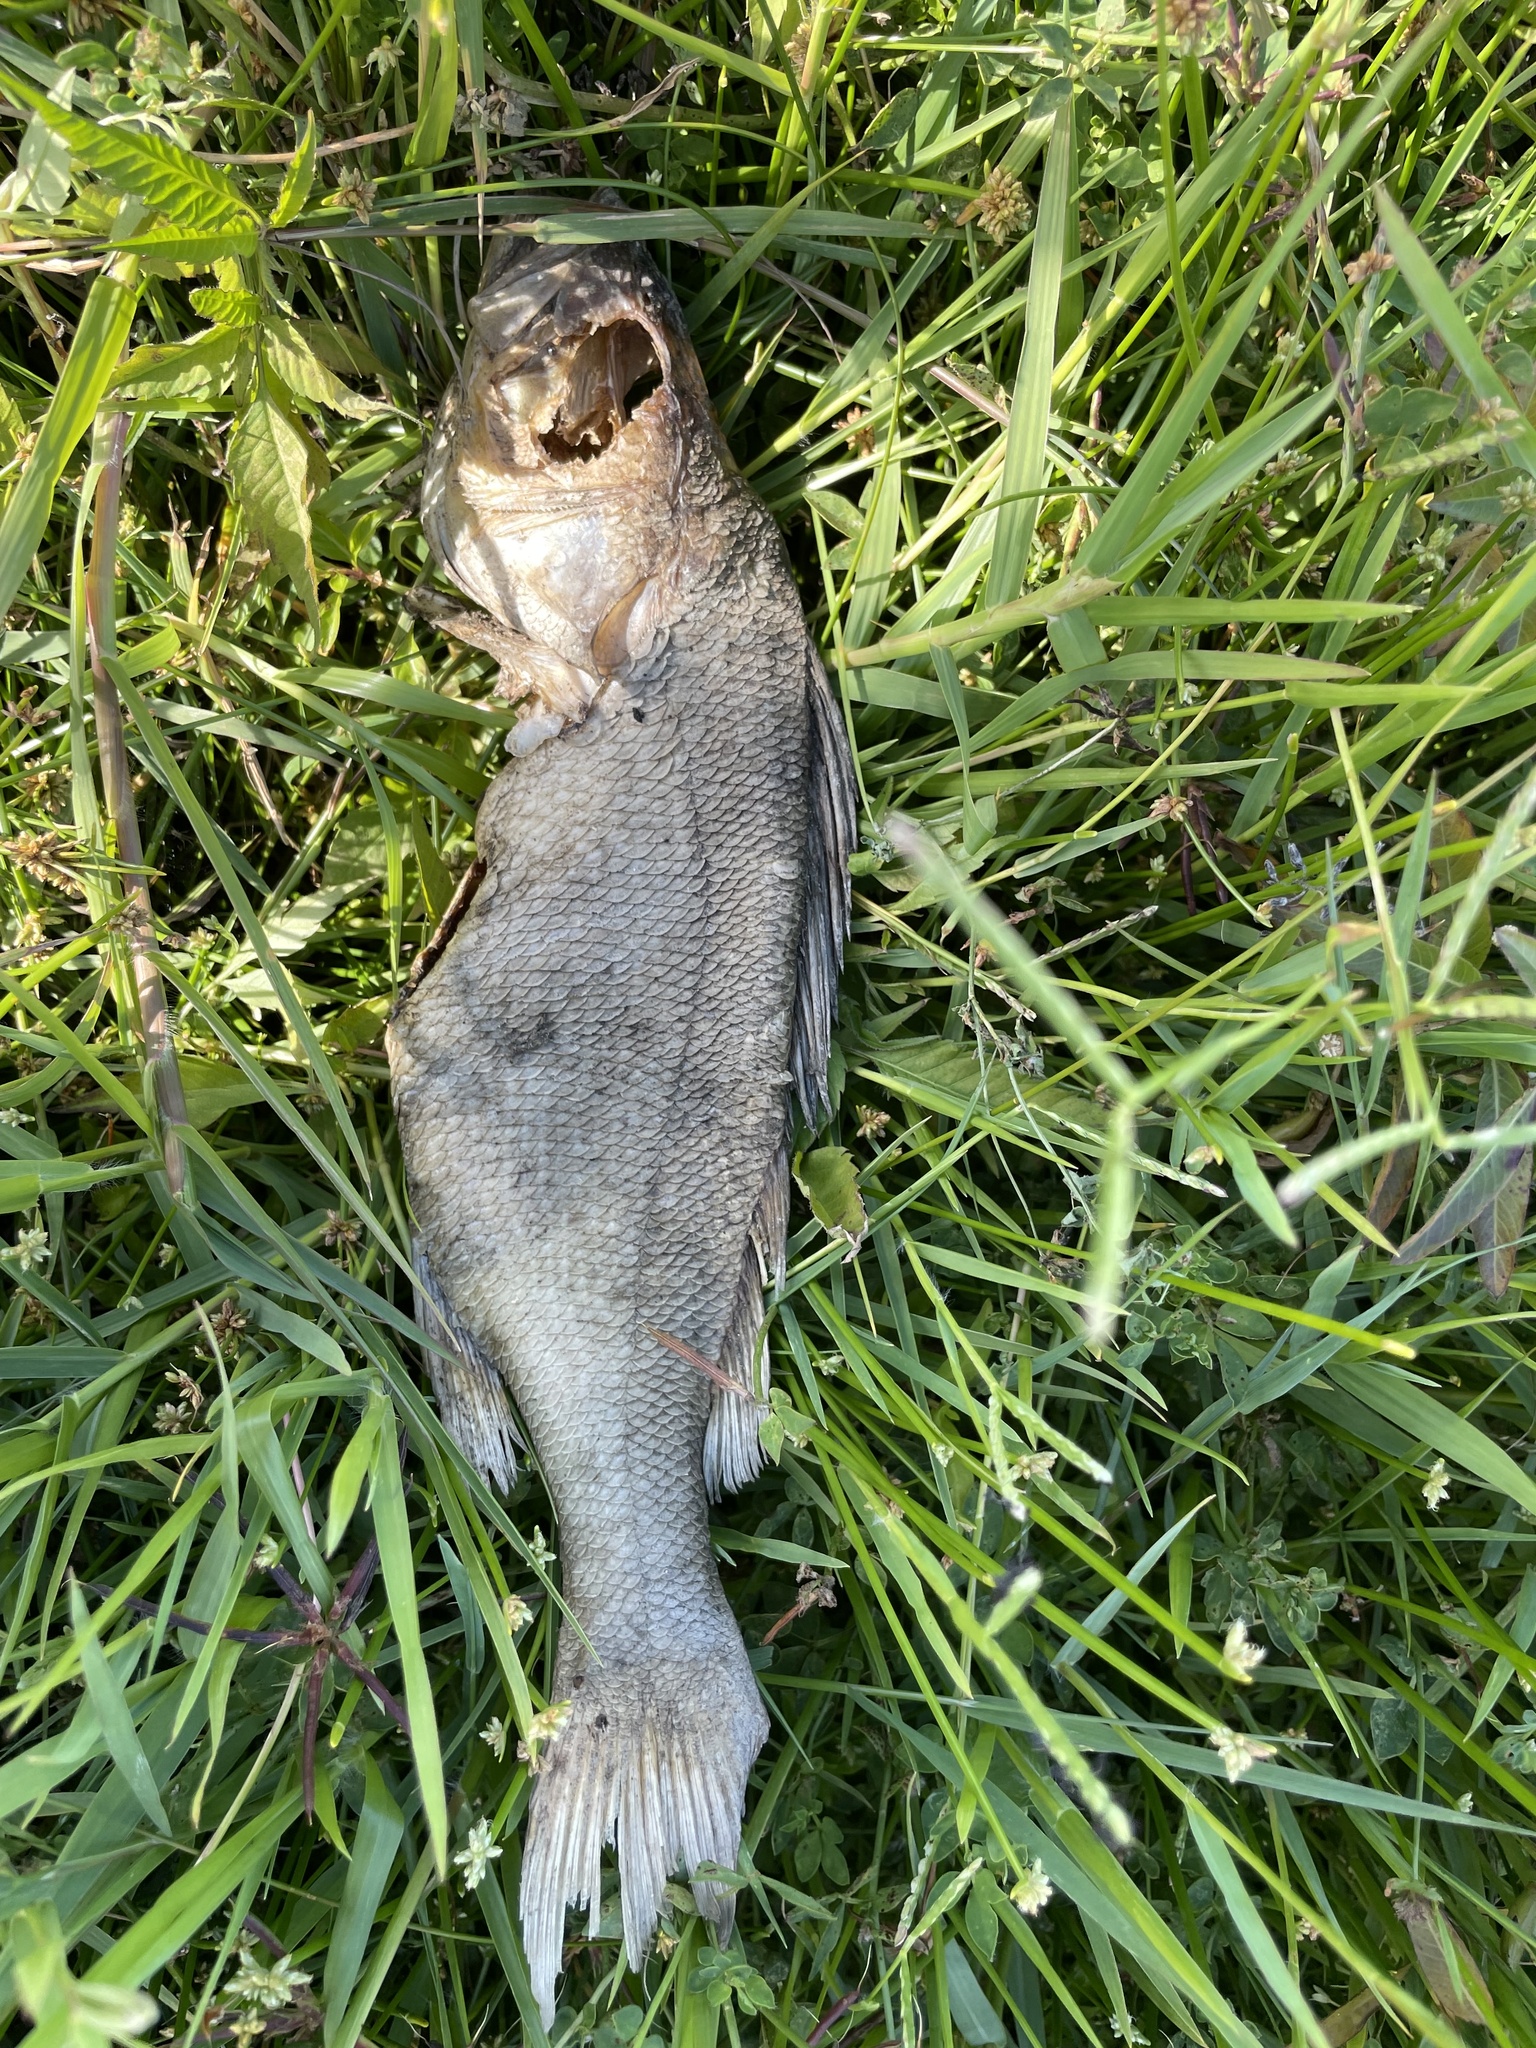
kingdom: Animalia
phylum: Chordata
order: Perciformes
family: Percidae
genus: Perca
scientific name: Perca fluviatilis
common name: Perch
